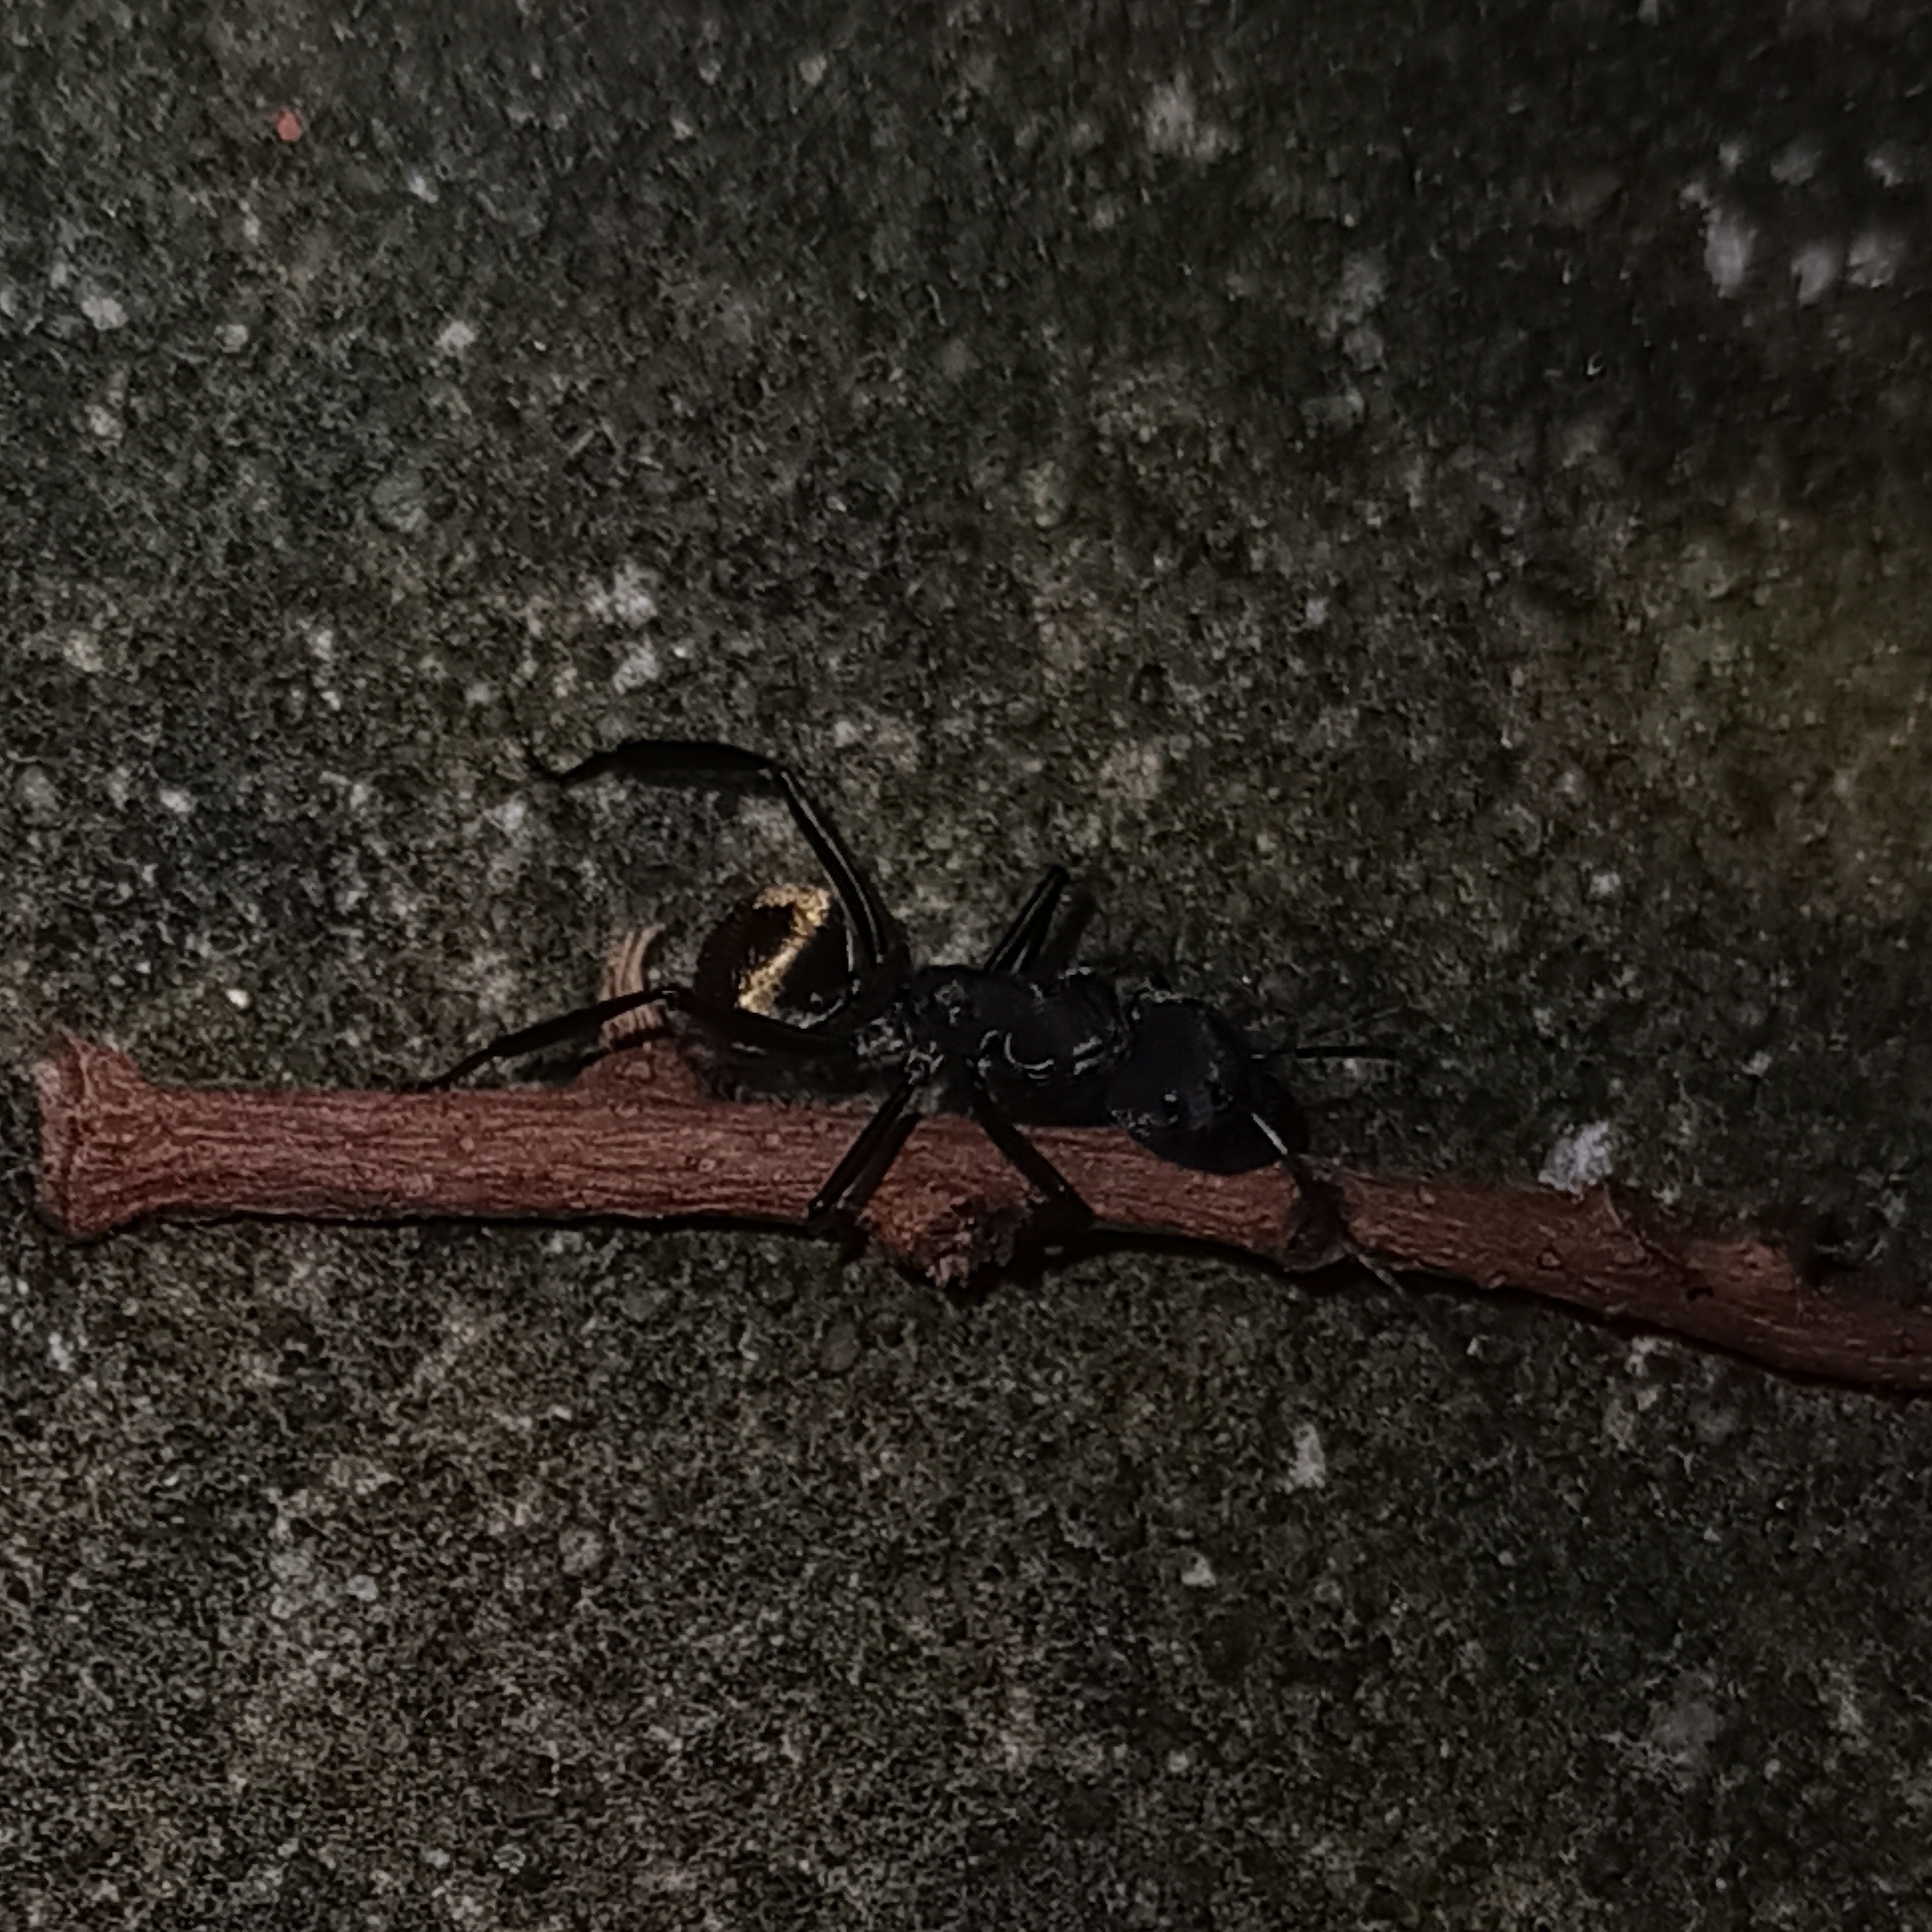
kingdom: Animalia
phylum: Arthropoda
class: Insecta
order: Hymenoptera
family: Formicidae
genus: Camponotus
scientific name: Camponotus sericeiventris
